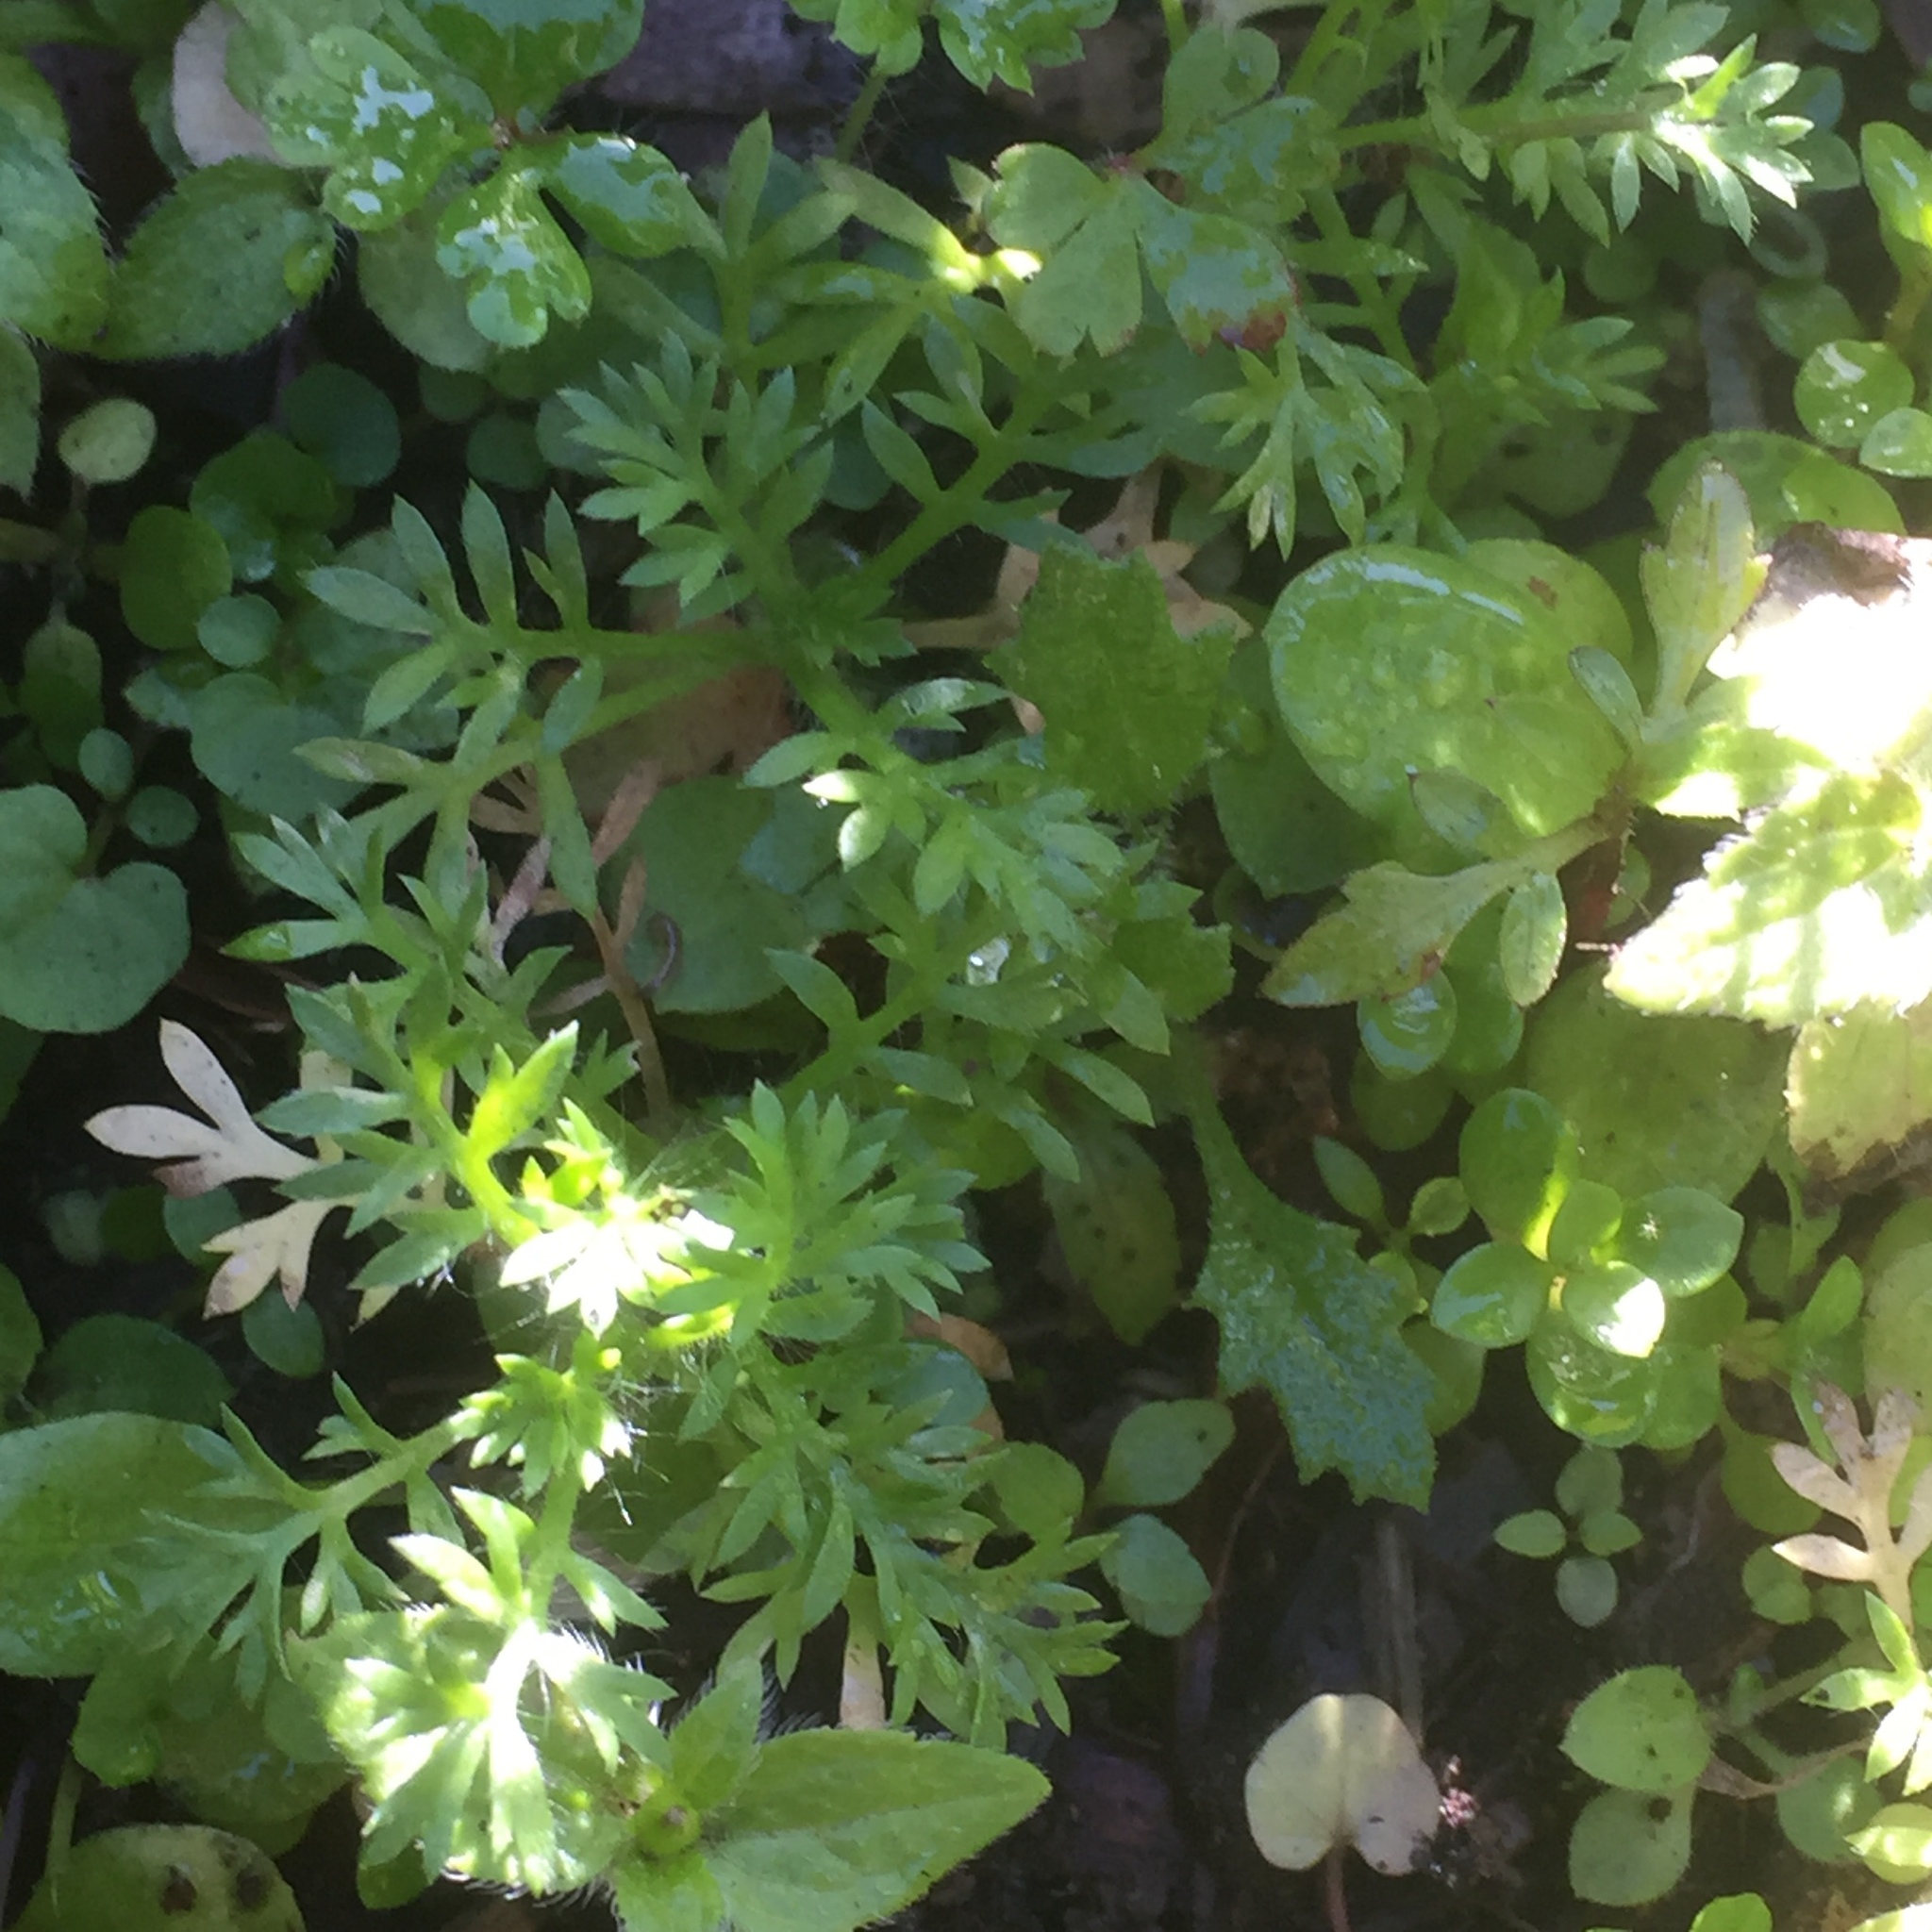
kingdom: Plantae
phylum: Tracheophyta
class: Magnoliopsida
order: Asterales
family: Asteraceae
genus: Cotula
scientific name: Cotula australis
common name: Australian waterbuttons
